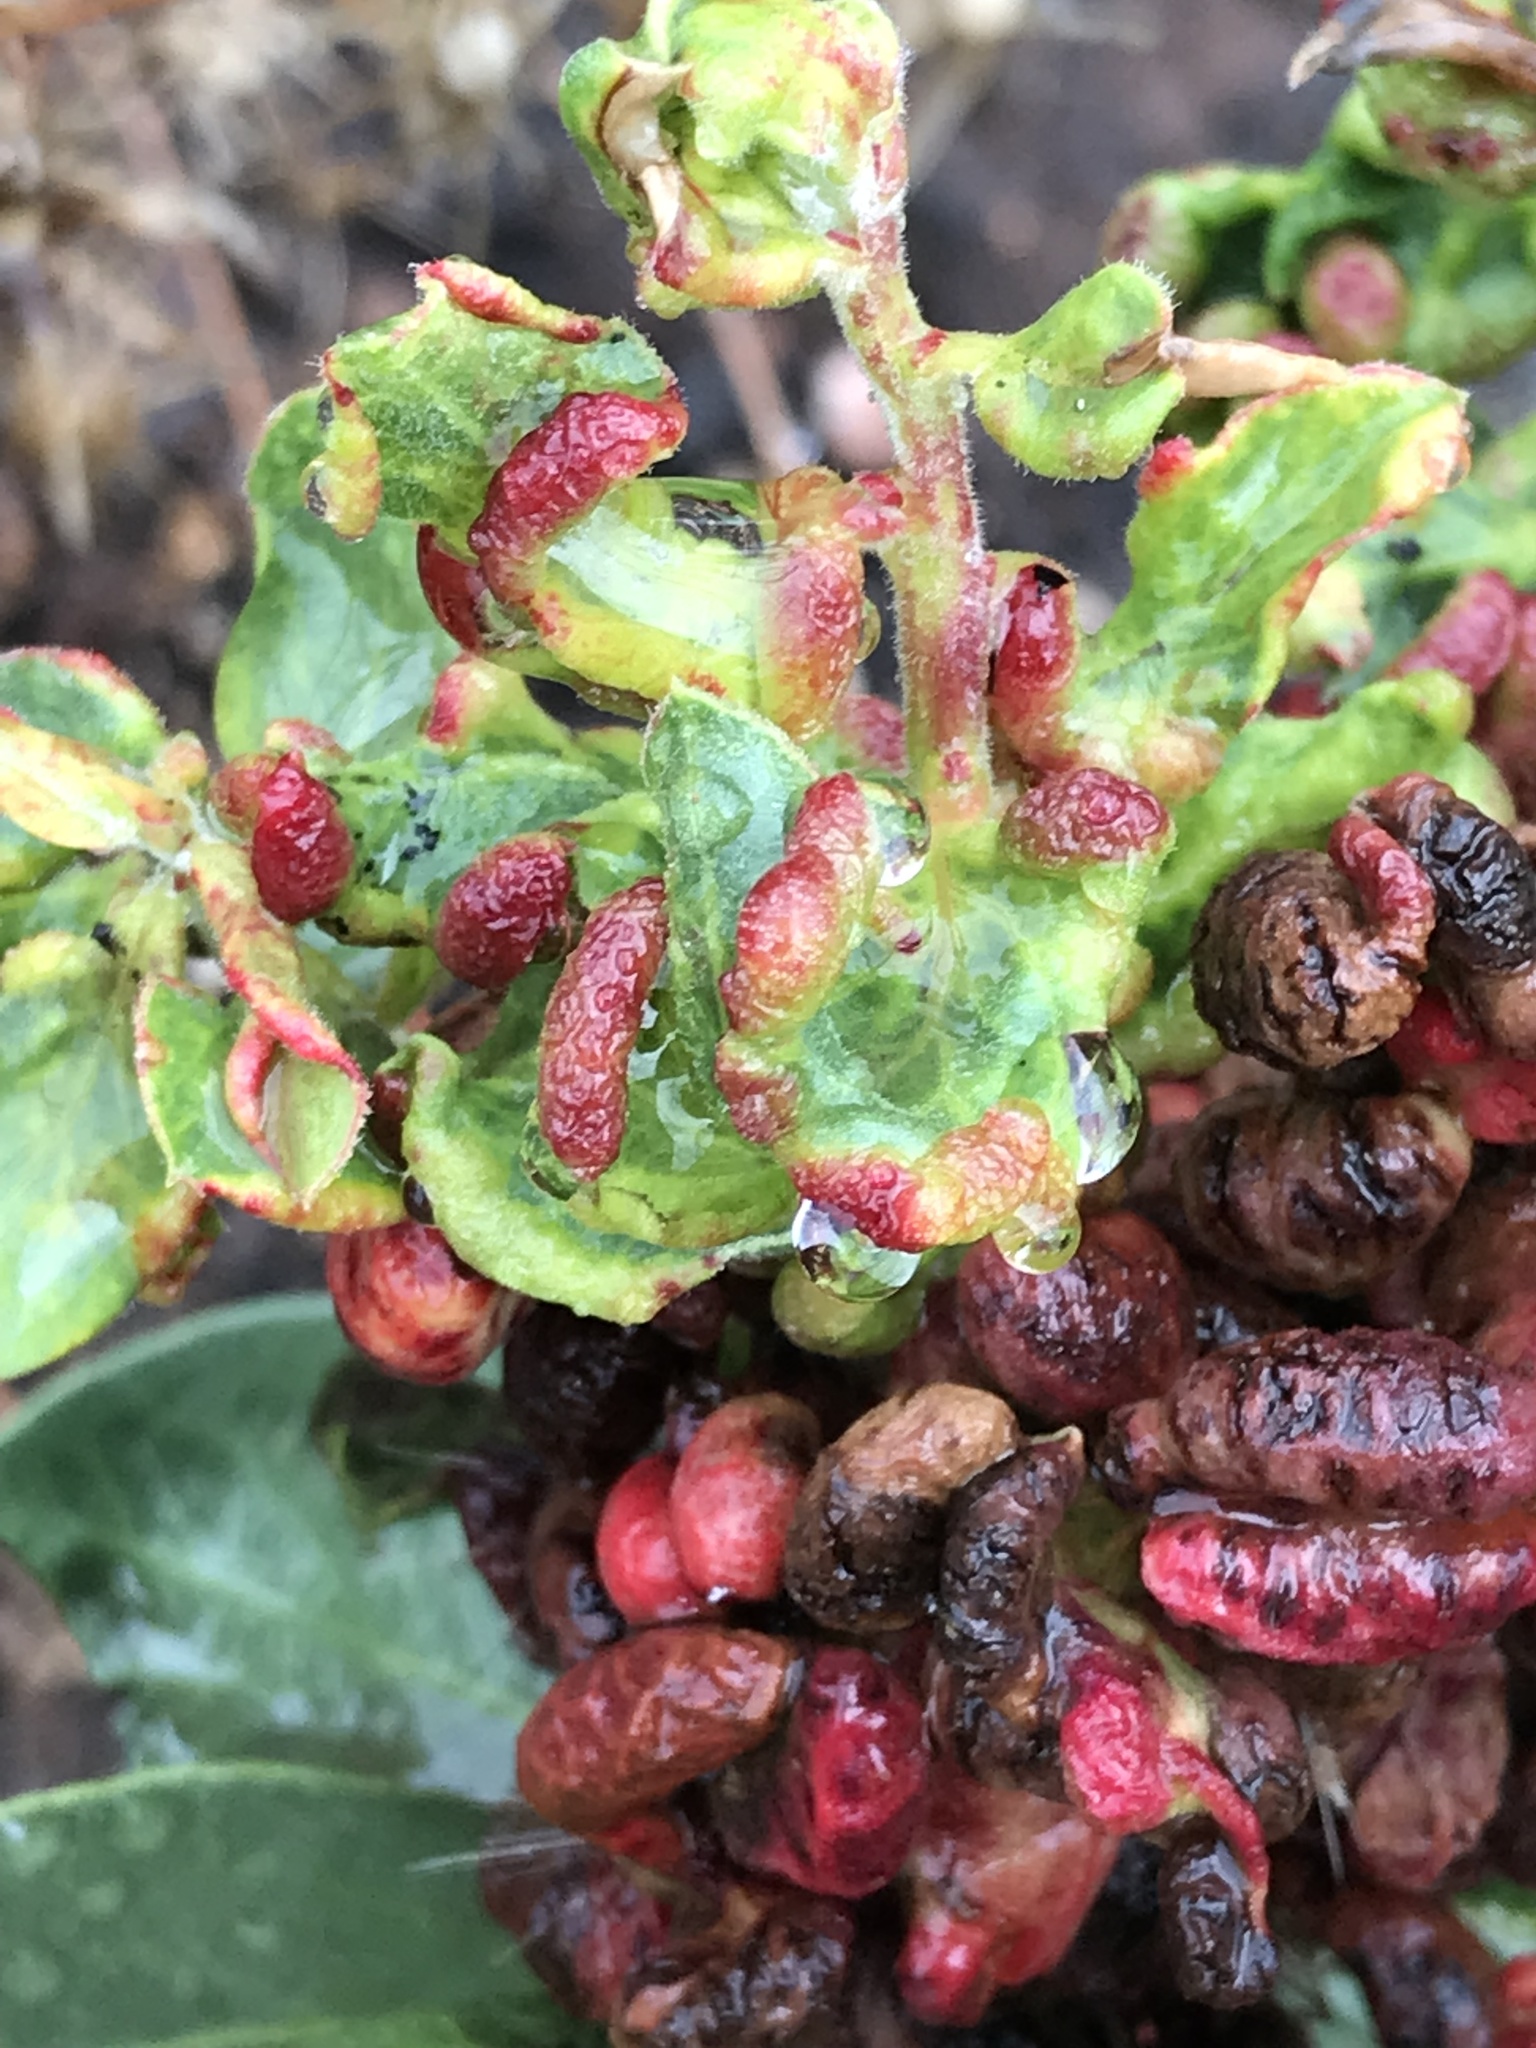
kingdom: Animalia
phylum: Arthropoda
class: Insecta
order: Hemiptera
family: Aphididae
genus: Tamalia
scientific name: Tamalia coweni
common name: Manzanita leafgall aphid
